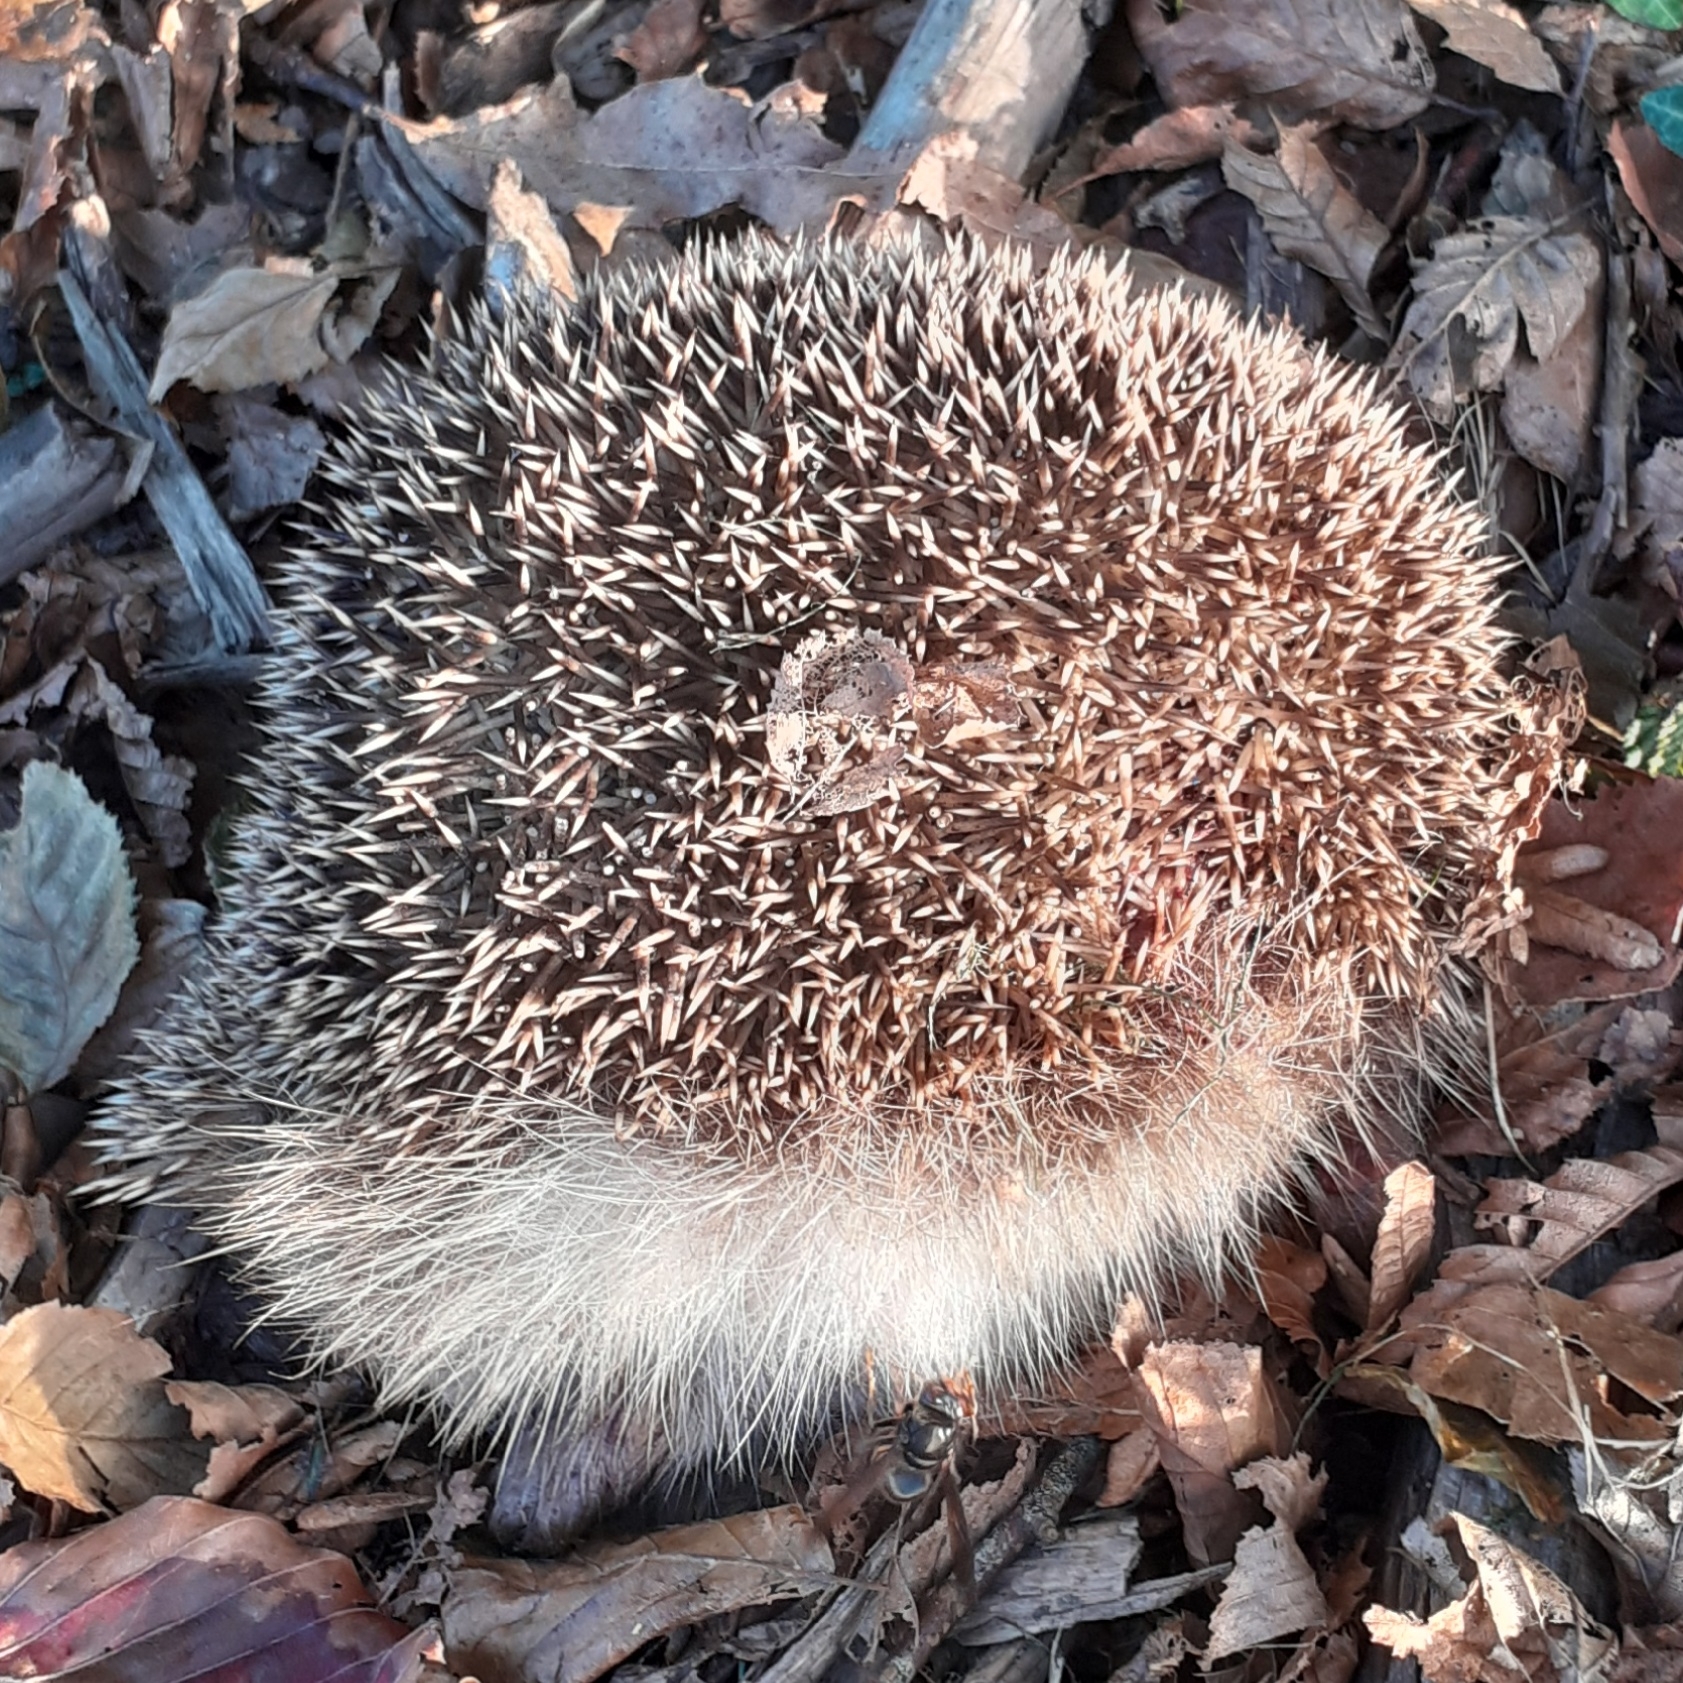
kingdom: Animalia
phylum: Chordata
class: Mammalia
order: Erinaceomorpha
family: Erinaceidae
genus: Erinaceus
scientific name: Erinaceus europaeus
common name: West european hedgehog
